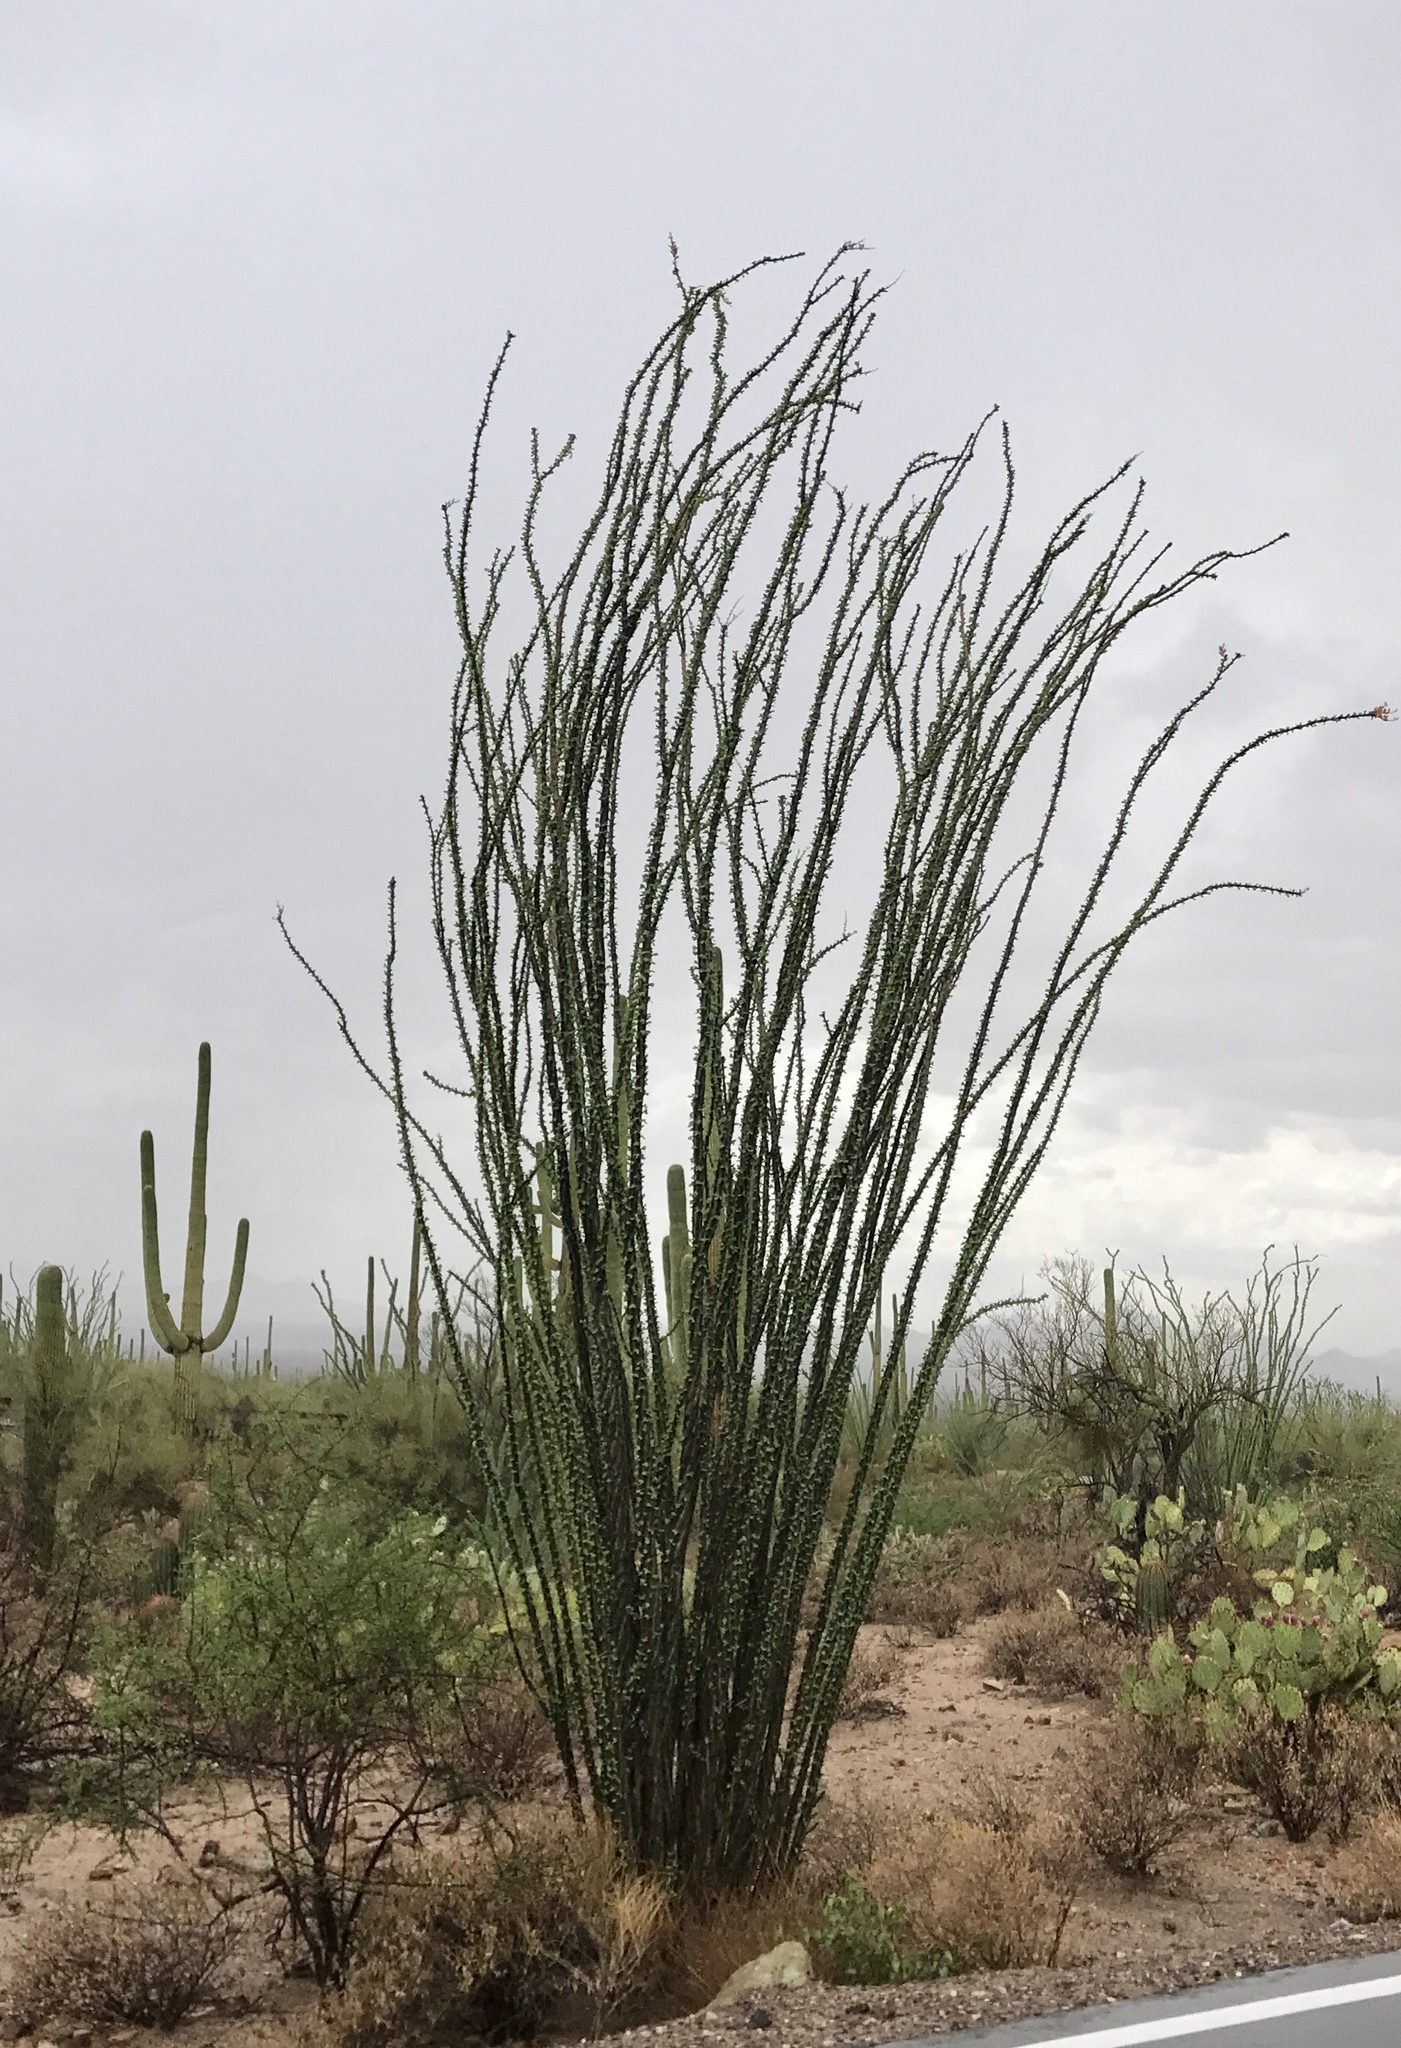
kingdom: Plantae
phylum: Tracheophyta
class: Magnoliopsida
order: Ericales
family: Fouquieriaceae
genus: Fouquieria
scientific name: Fouquieria splendens
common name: Vine-cactus
